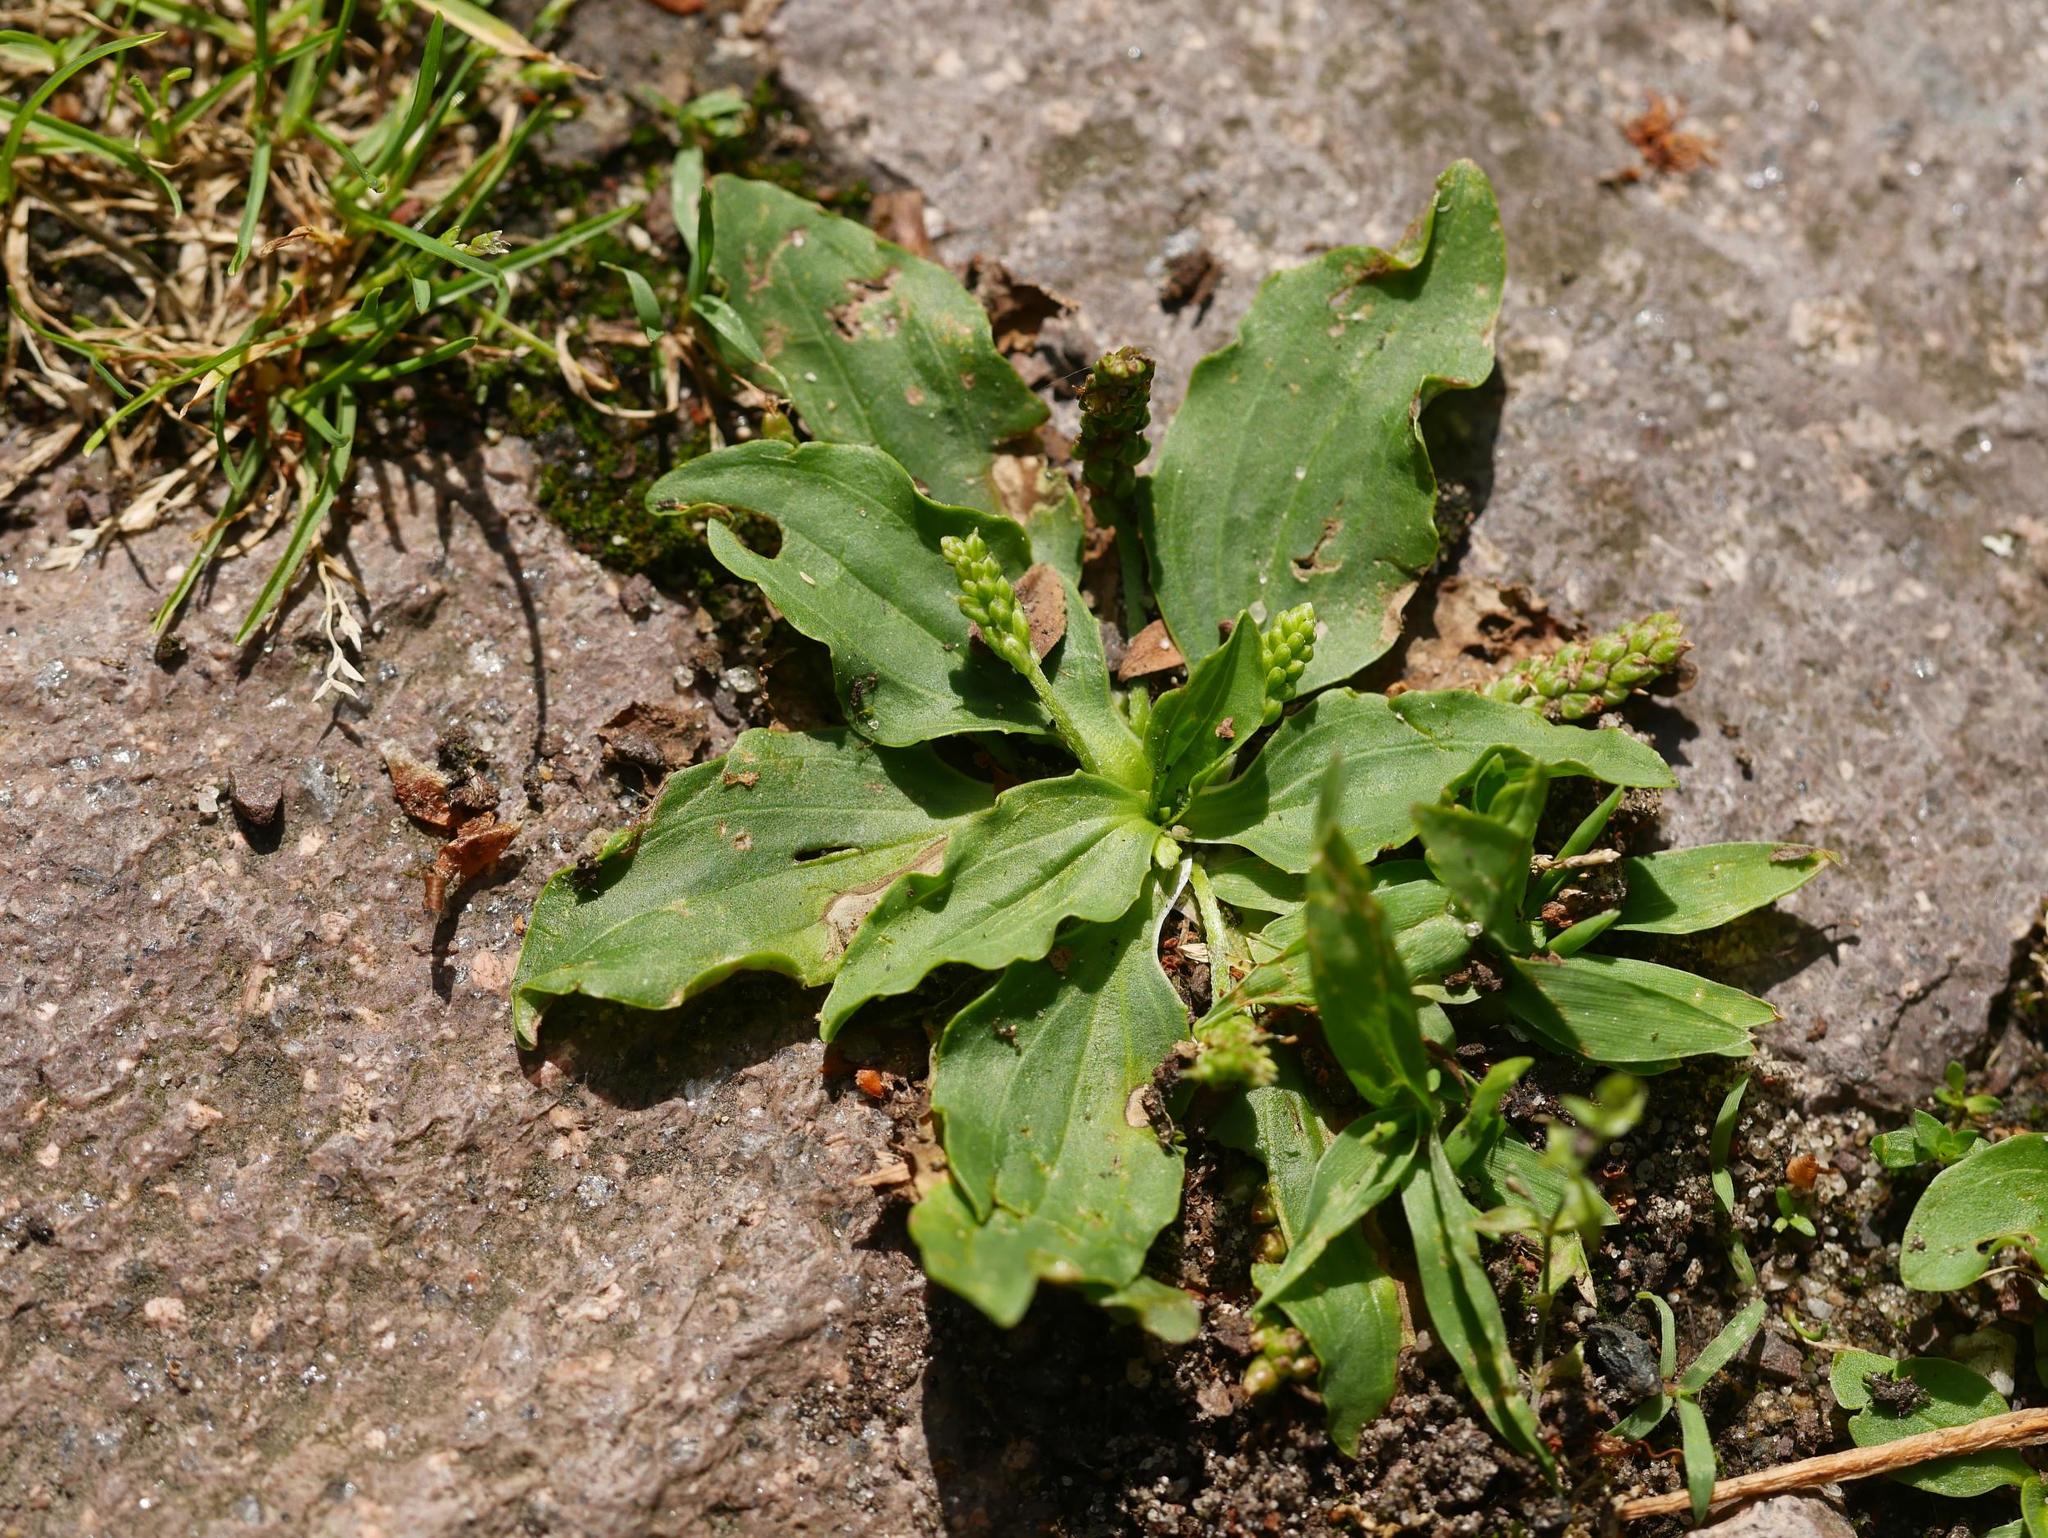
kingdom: Plantae
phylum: Tracheophyta
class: Magnoliopsida
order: Lamiales
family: Plantaginaceae
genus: Plantago
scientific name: Plantago major
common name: Common plantain
